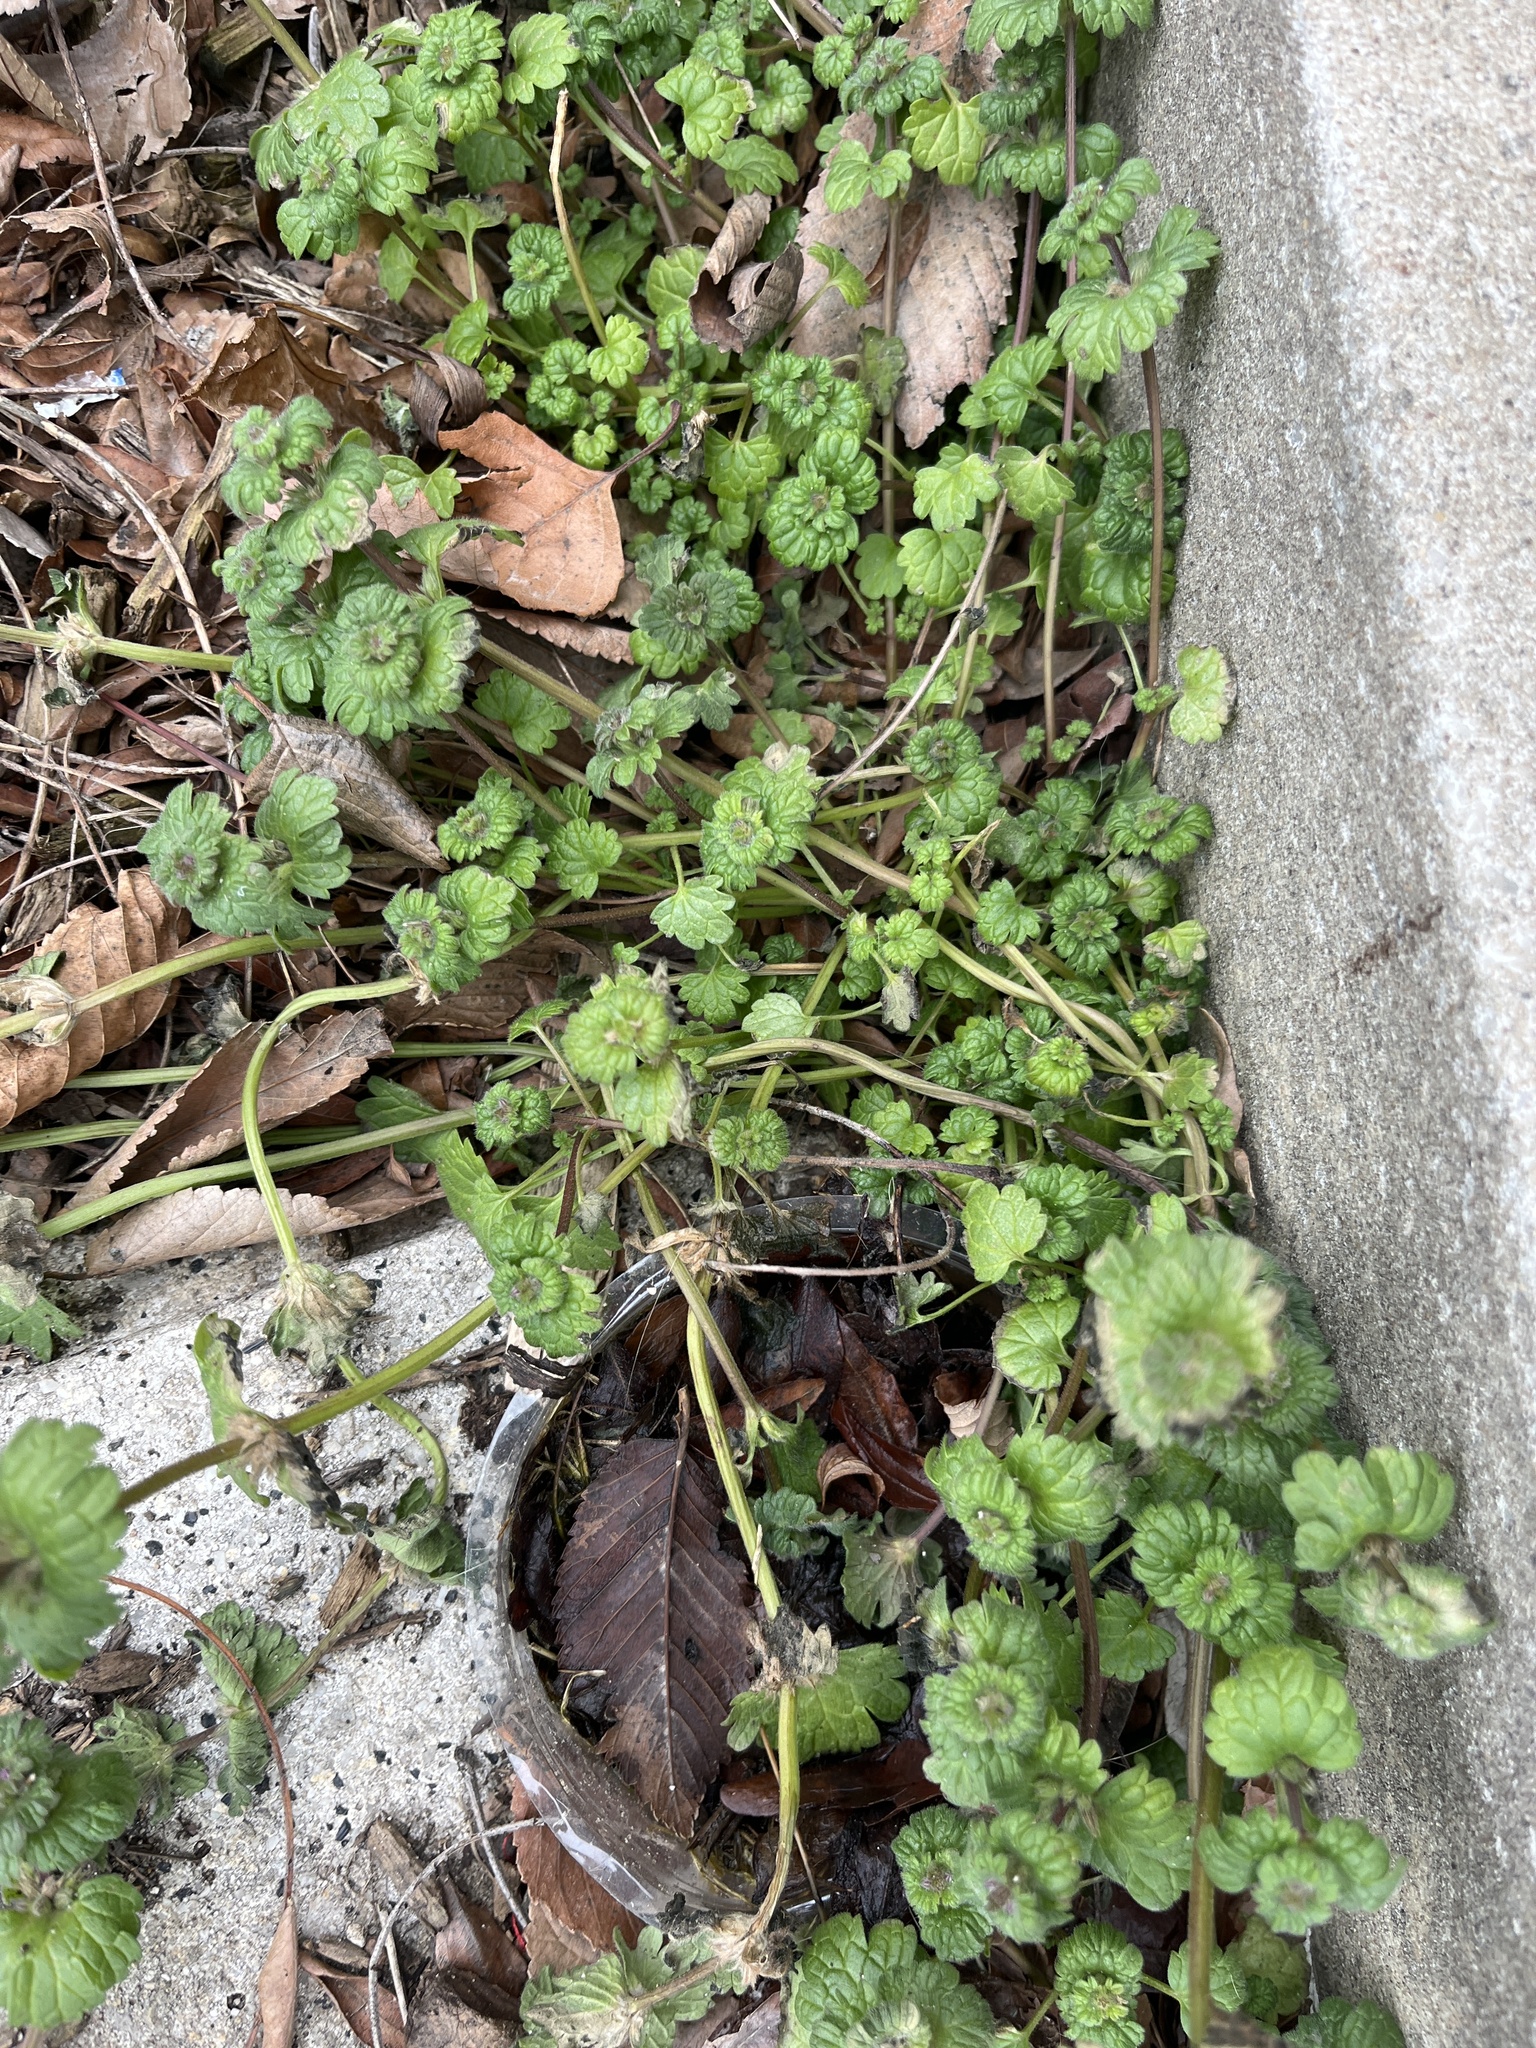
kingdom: Plantae
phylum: Tracheophyta
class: Magnoliopsida
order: Lamiales
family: Lamiaceae
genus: Lamium
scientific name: Lamium amplexicaule
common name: Henbit dead-nettle
